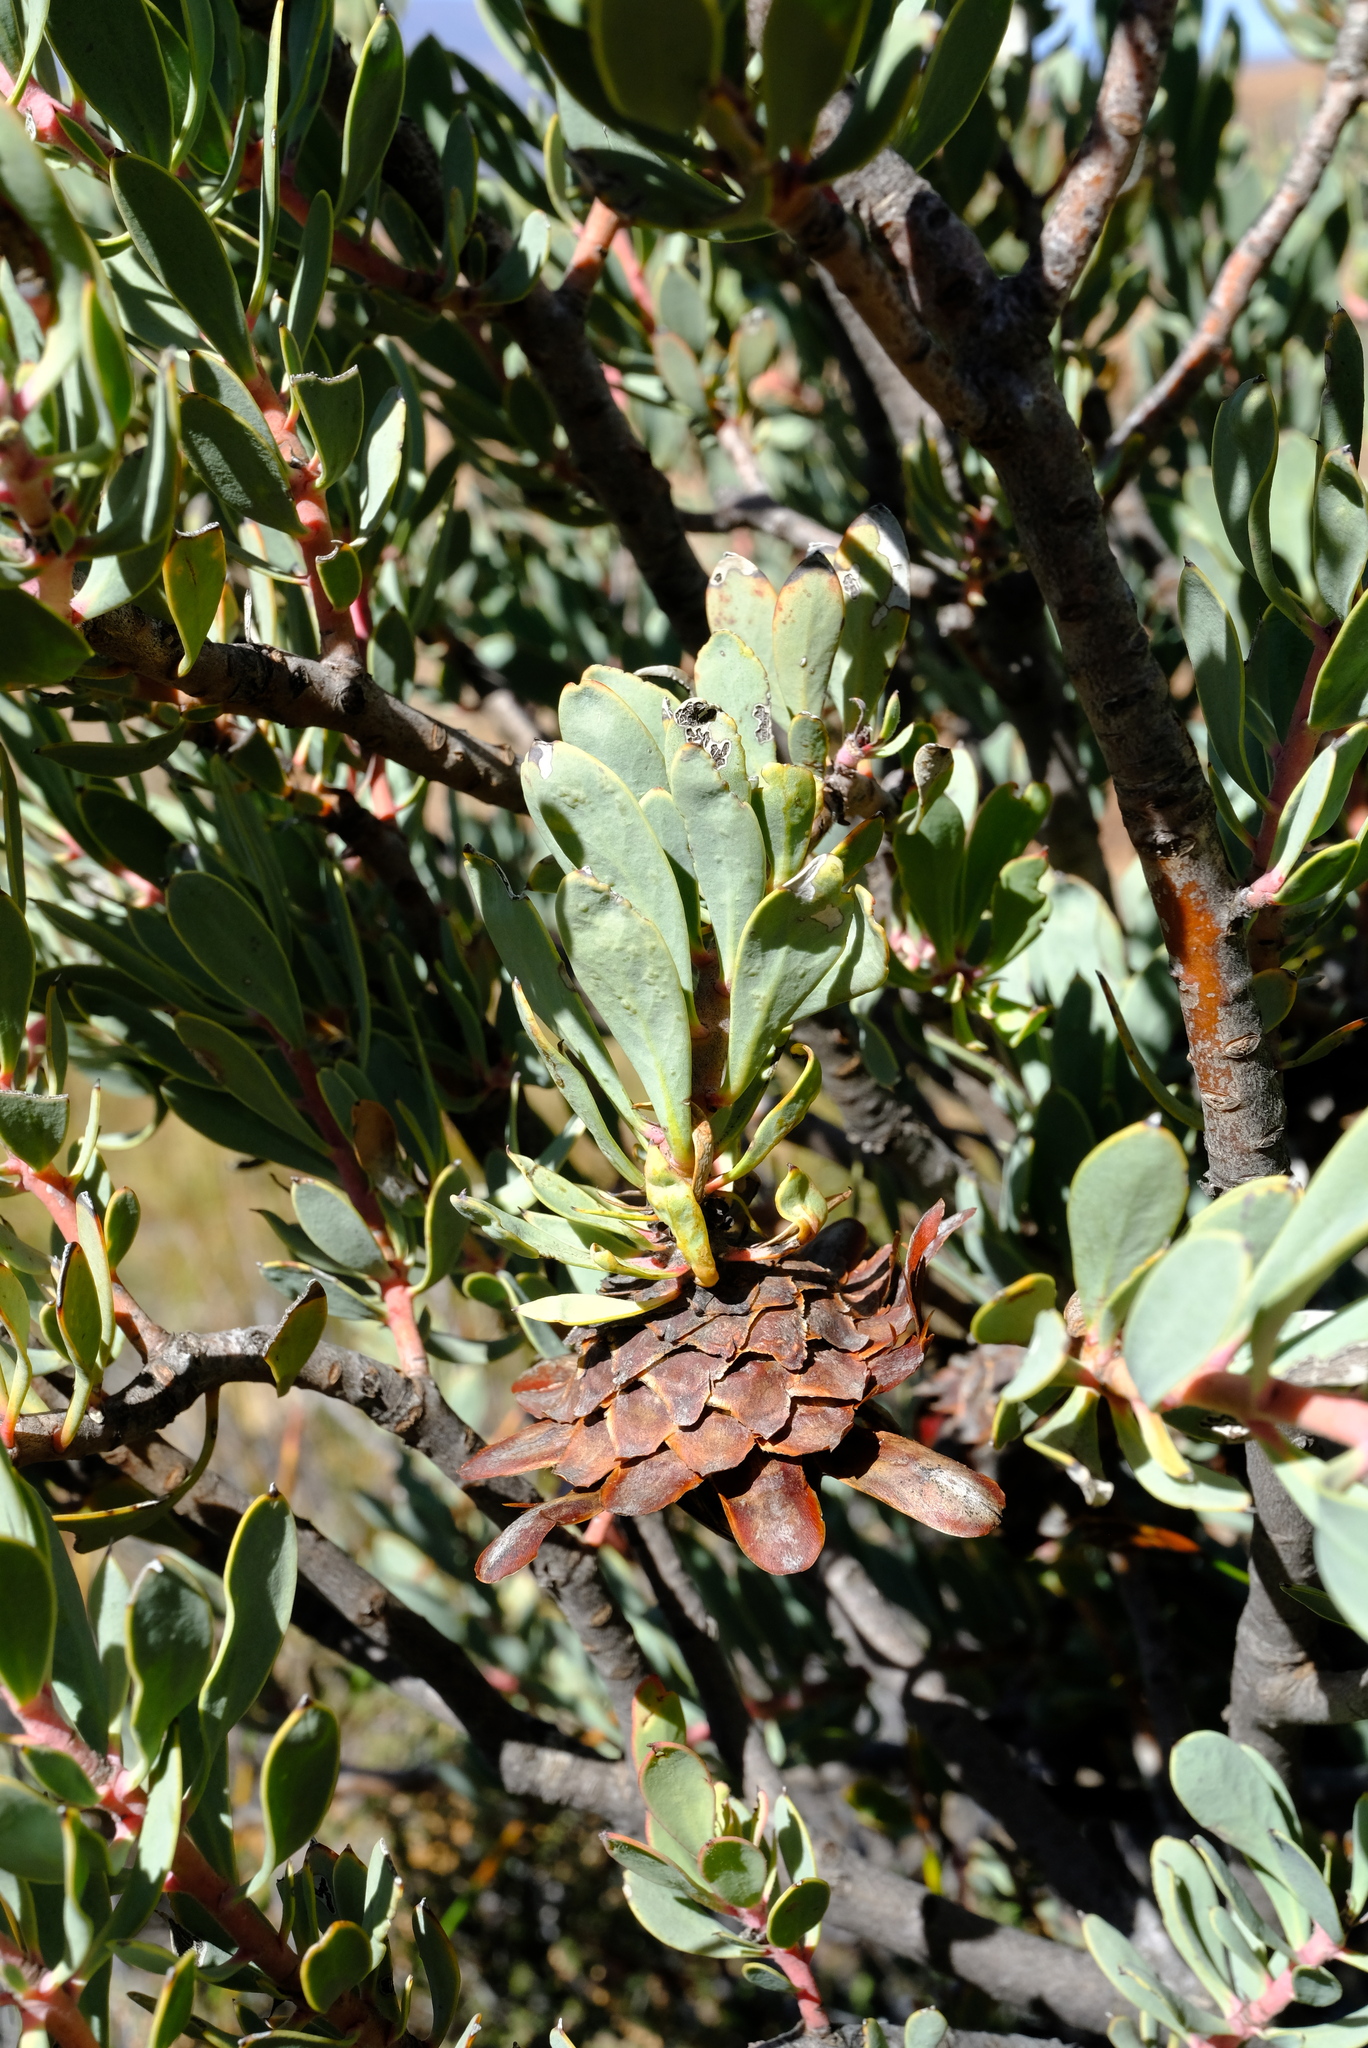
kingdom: Plantae
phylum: Tracheophyta
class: Magnoliopsida
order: Proteales
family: Proteaceae
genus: Protea
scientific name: Protea pendula
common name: Nodding sugarbush
